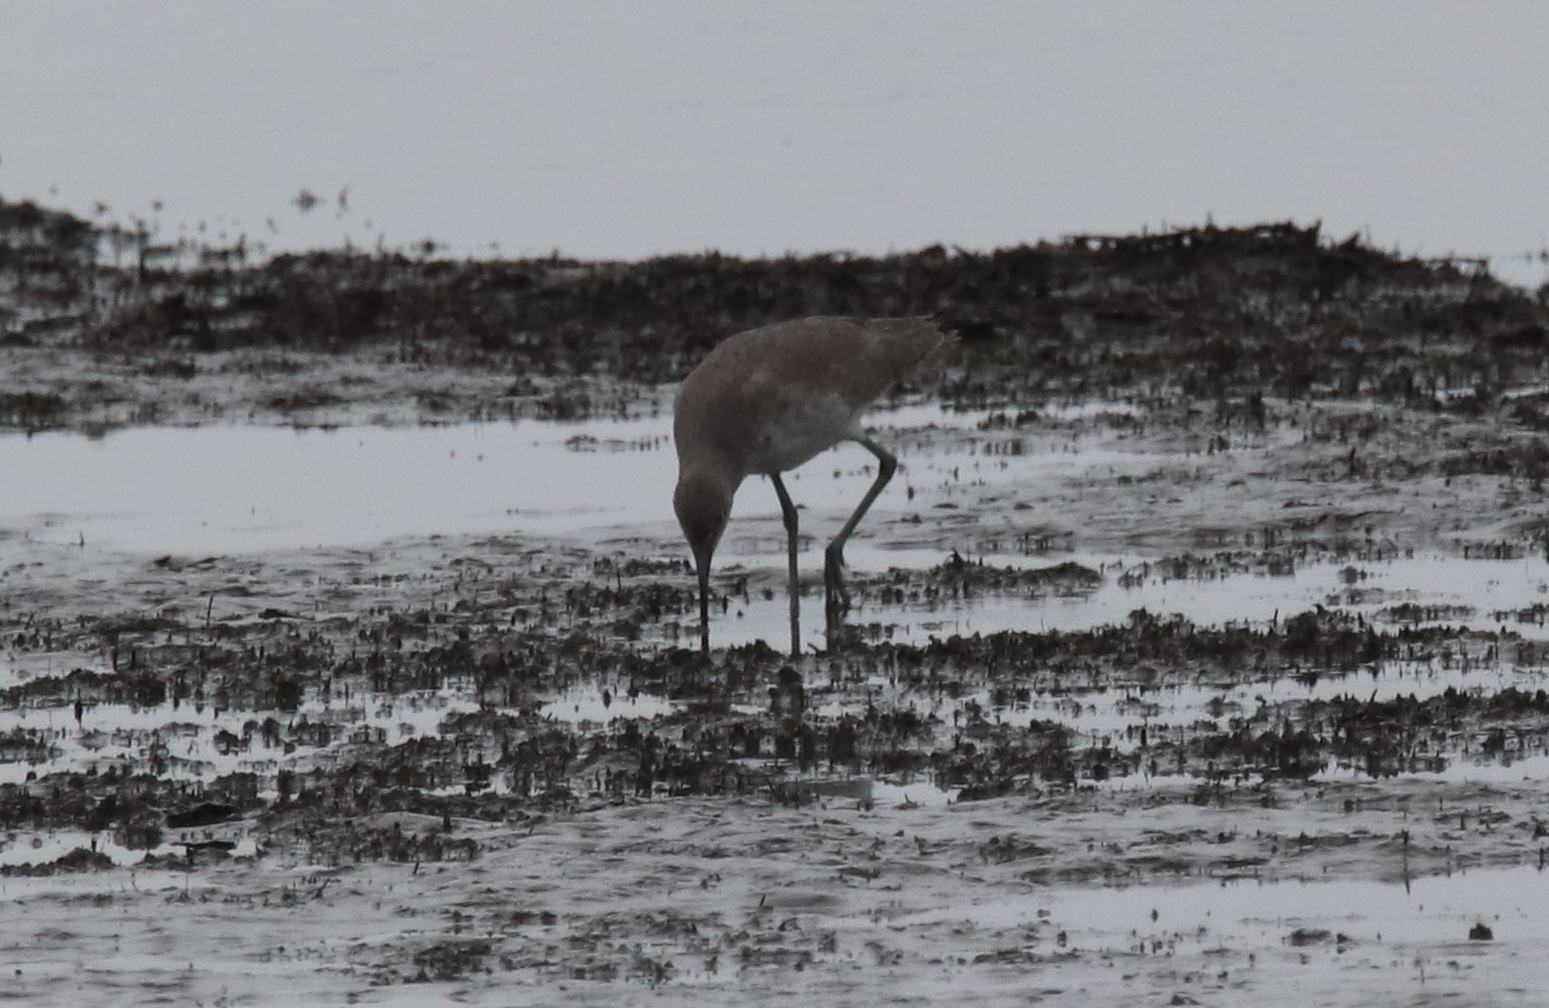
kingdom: Animalia
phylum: Chordata
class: Aves
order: Charadriiformes
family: Scolopacidae
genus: Tringa
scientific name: Tringa semipalmata
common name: Willet
